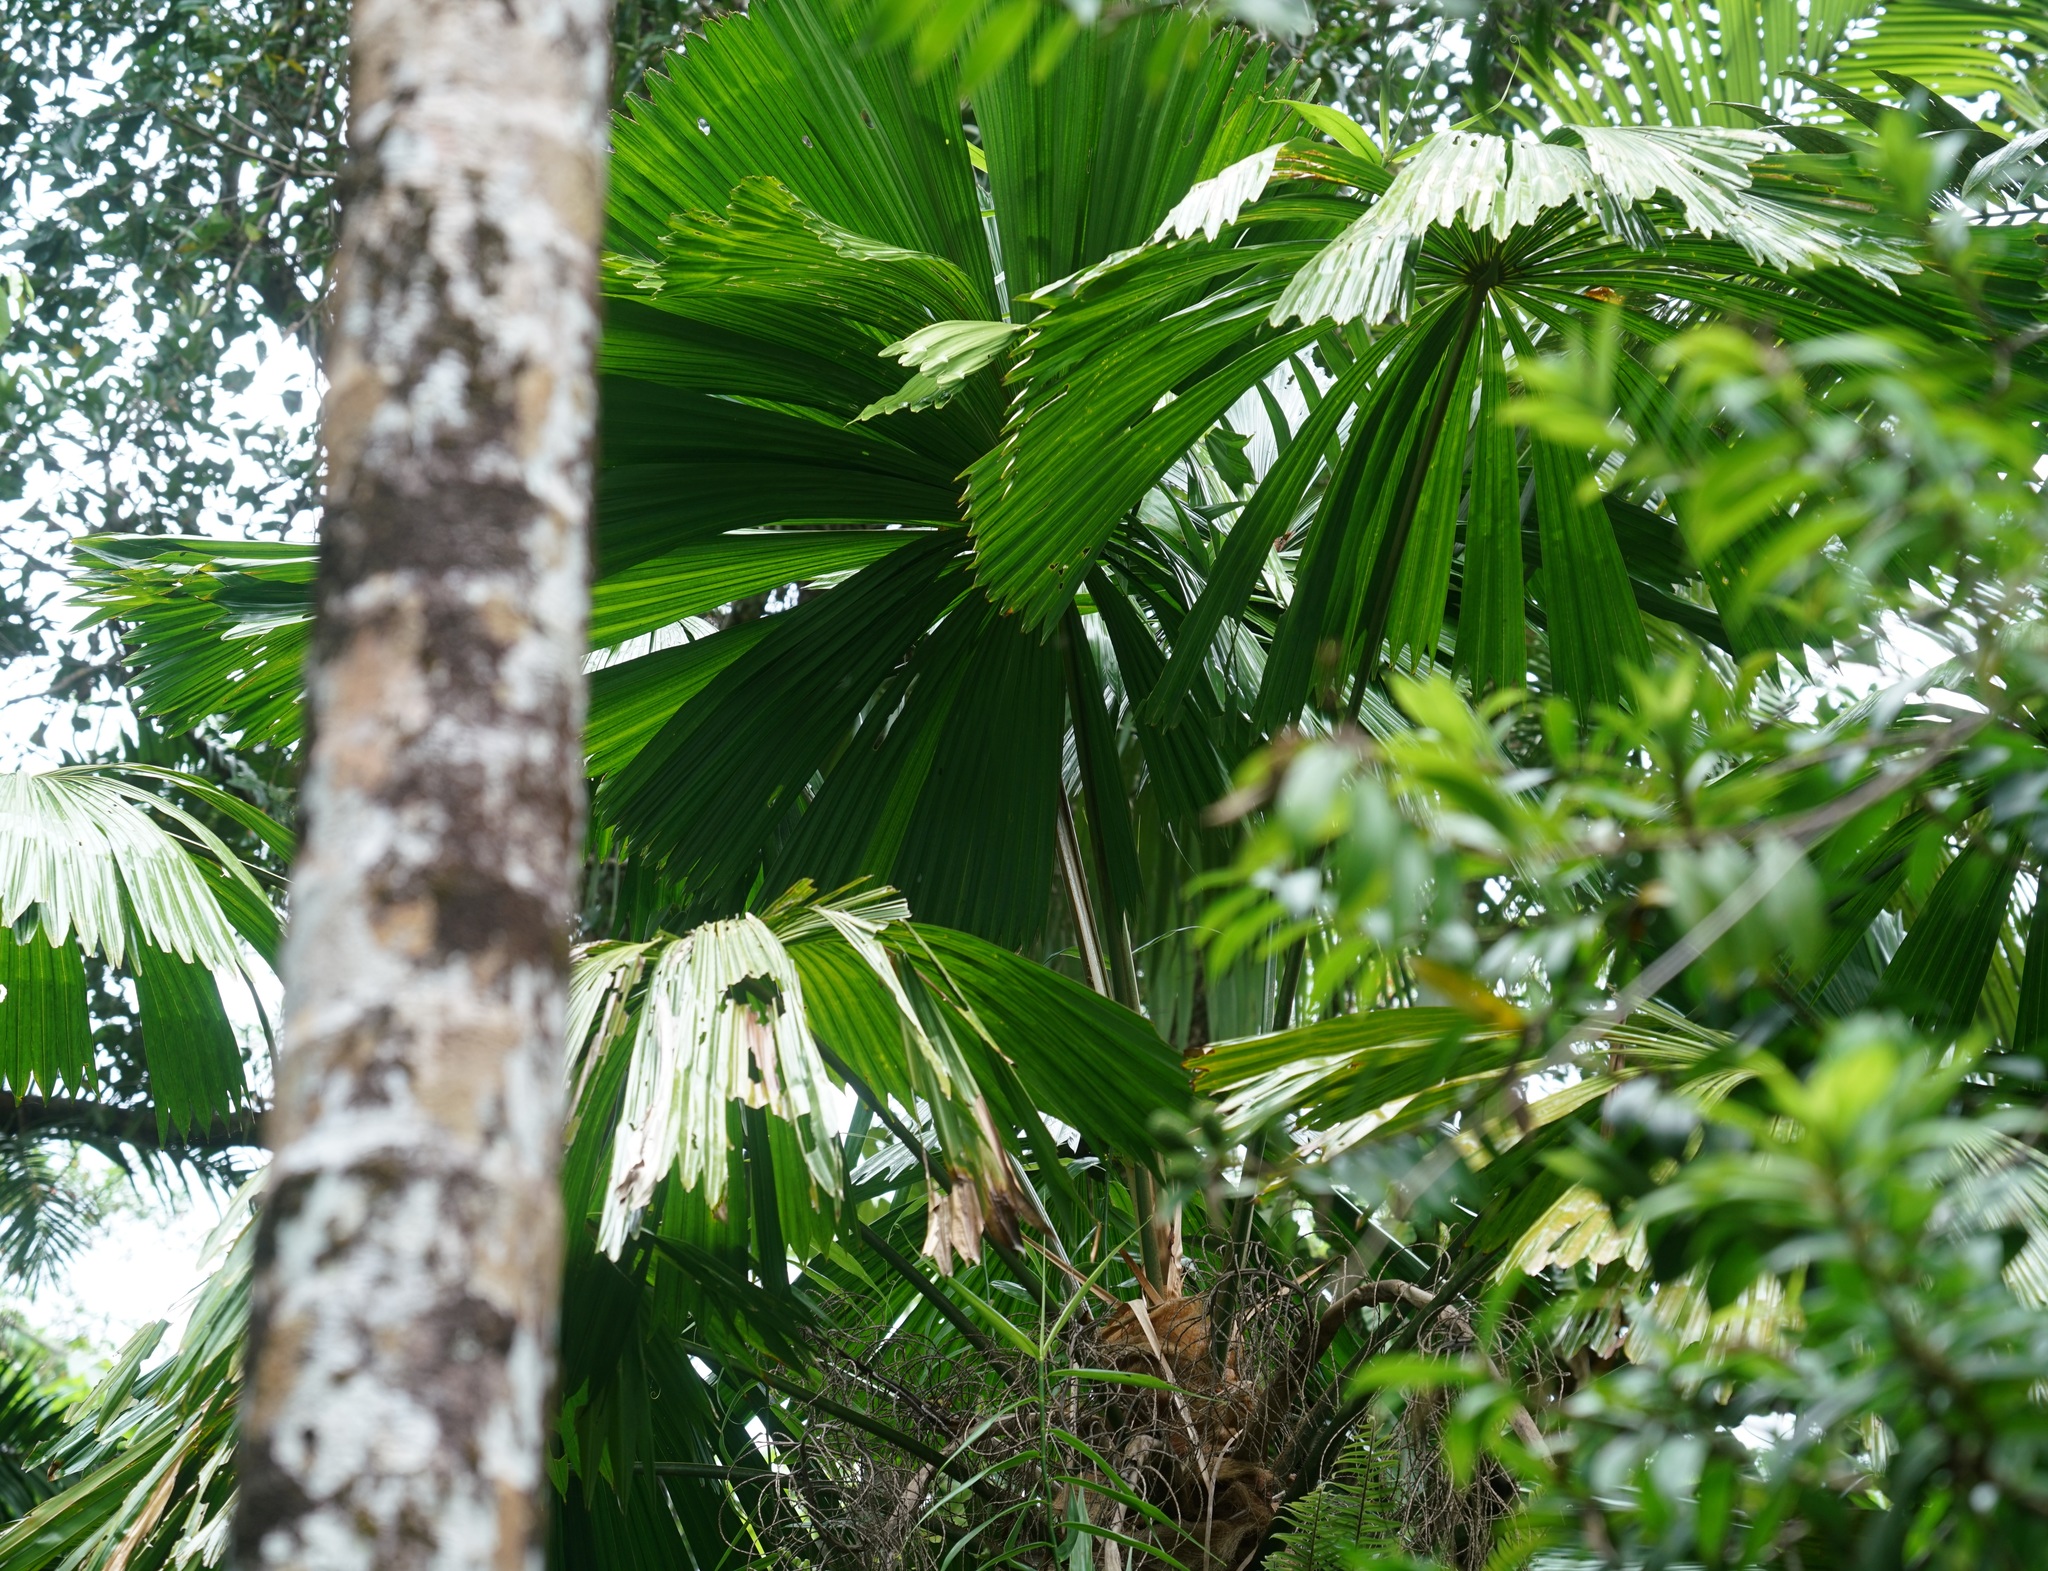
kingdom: Plantae
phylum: Tracheophyta
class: Liliopsida
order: Arecales
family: Arecaceae
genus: Licuala
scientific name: Licuala ramsayi
